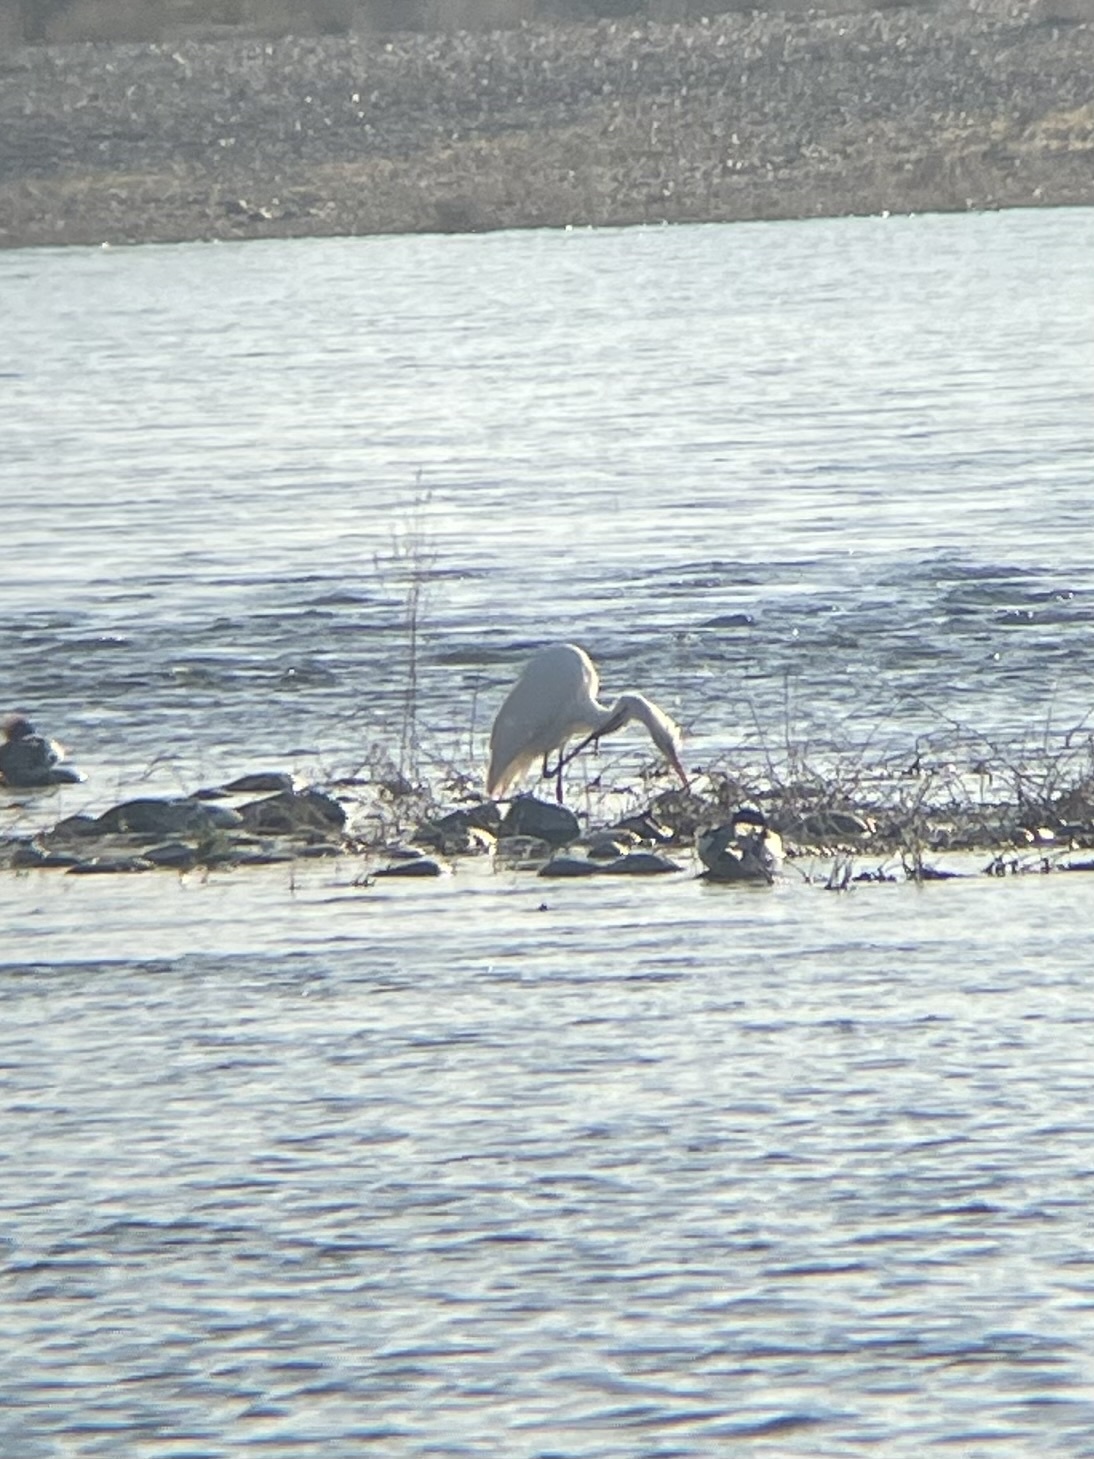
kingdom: Animalia
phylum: Chordata
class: Aves
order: Pelecaniformes
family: Ardeidae
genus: Ardea
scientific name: Ardea alba
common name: Great egret
